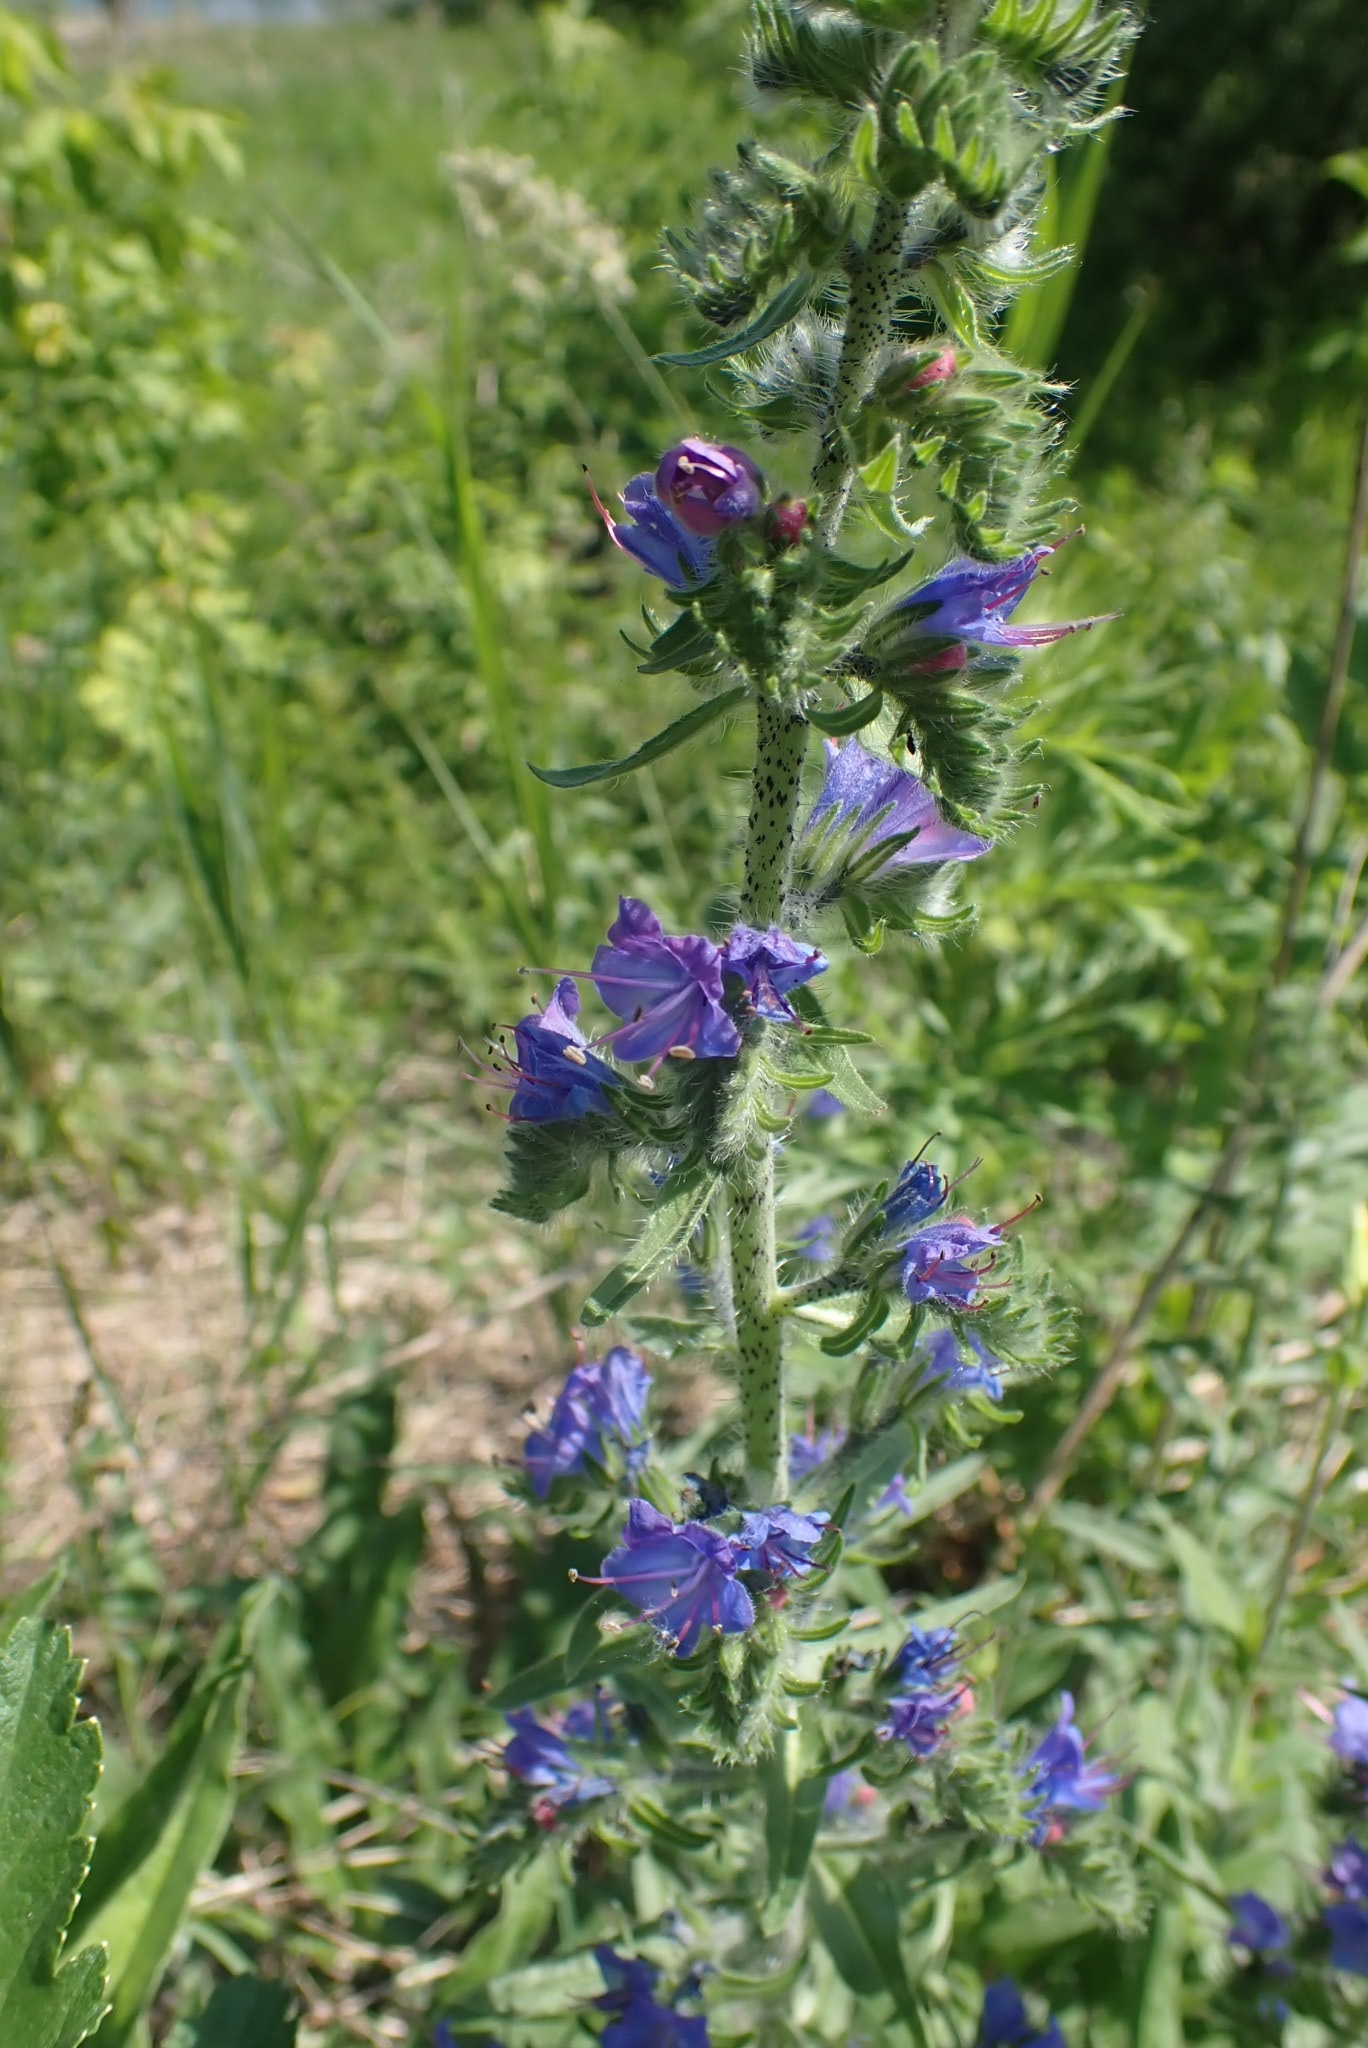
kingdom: Plantae
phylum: Tracheophyta
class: Magnoliopsida
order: Boraginales
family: Boraginaceae
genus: Echium
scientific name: Echium vulgare
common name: Common viper's bugloss
